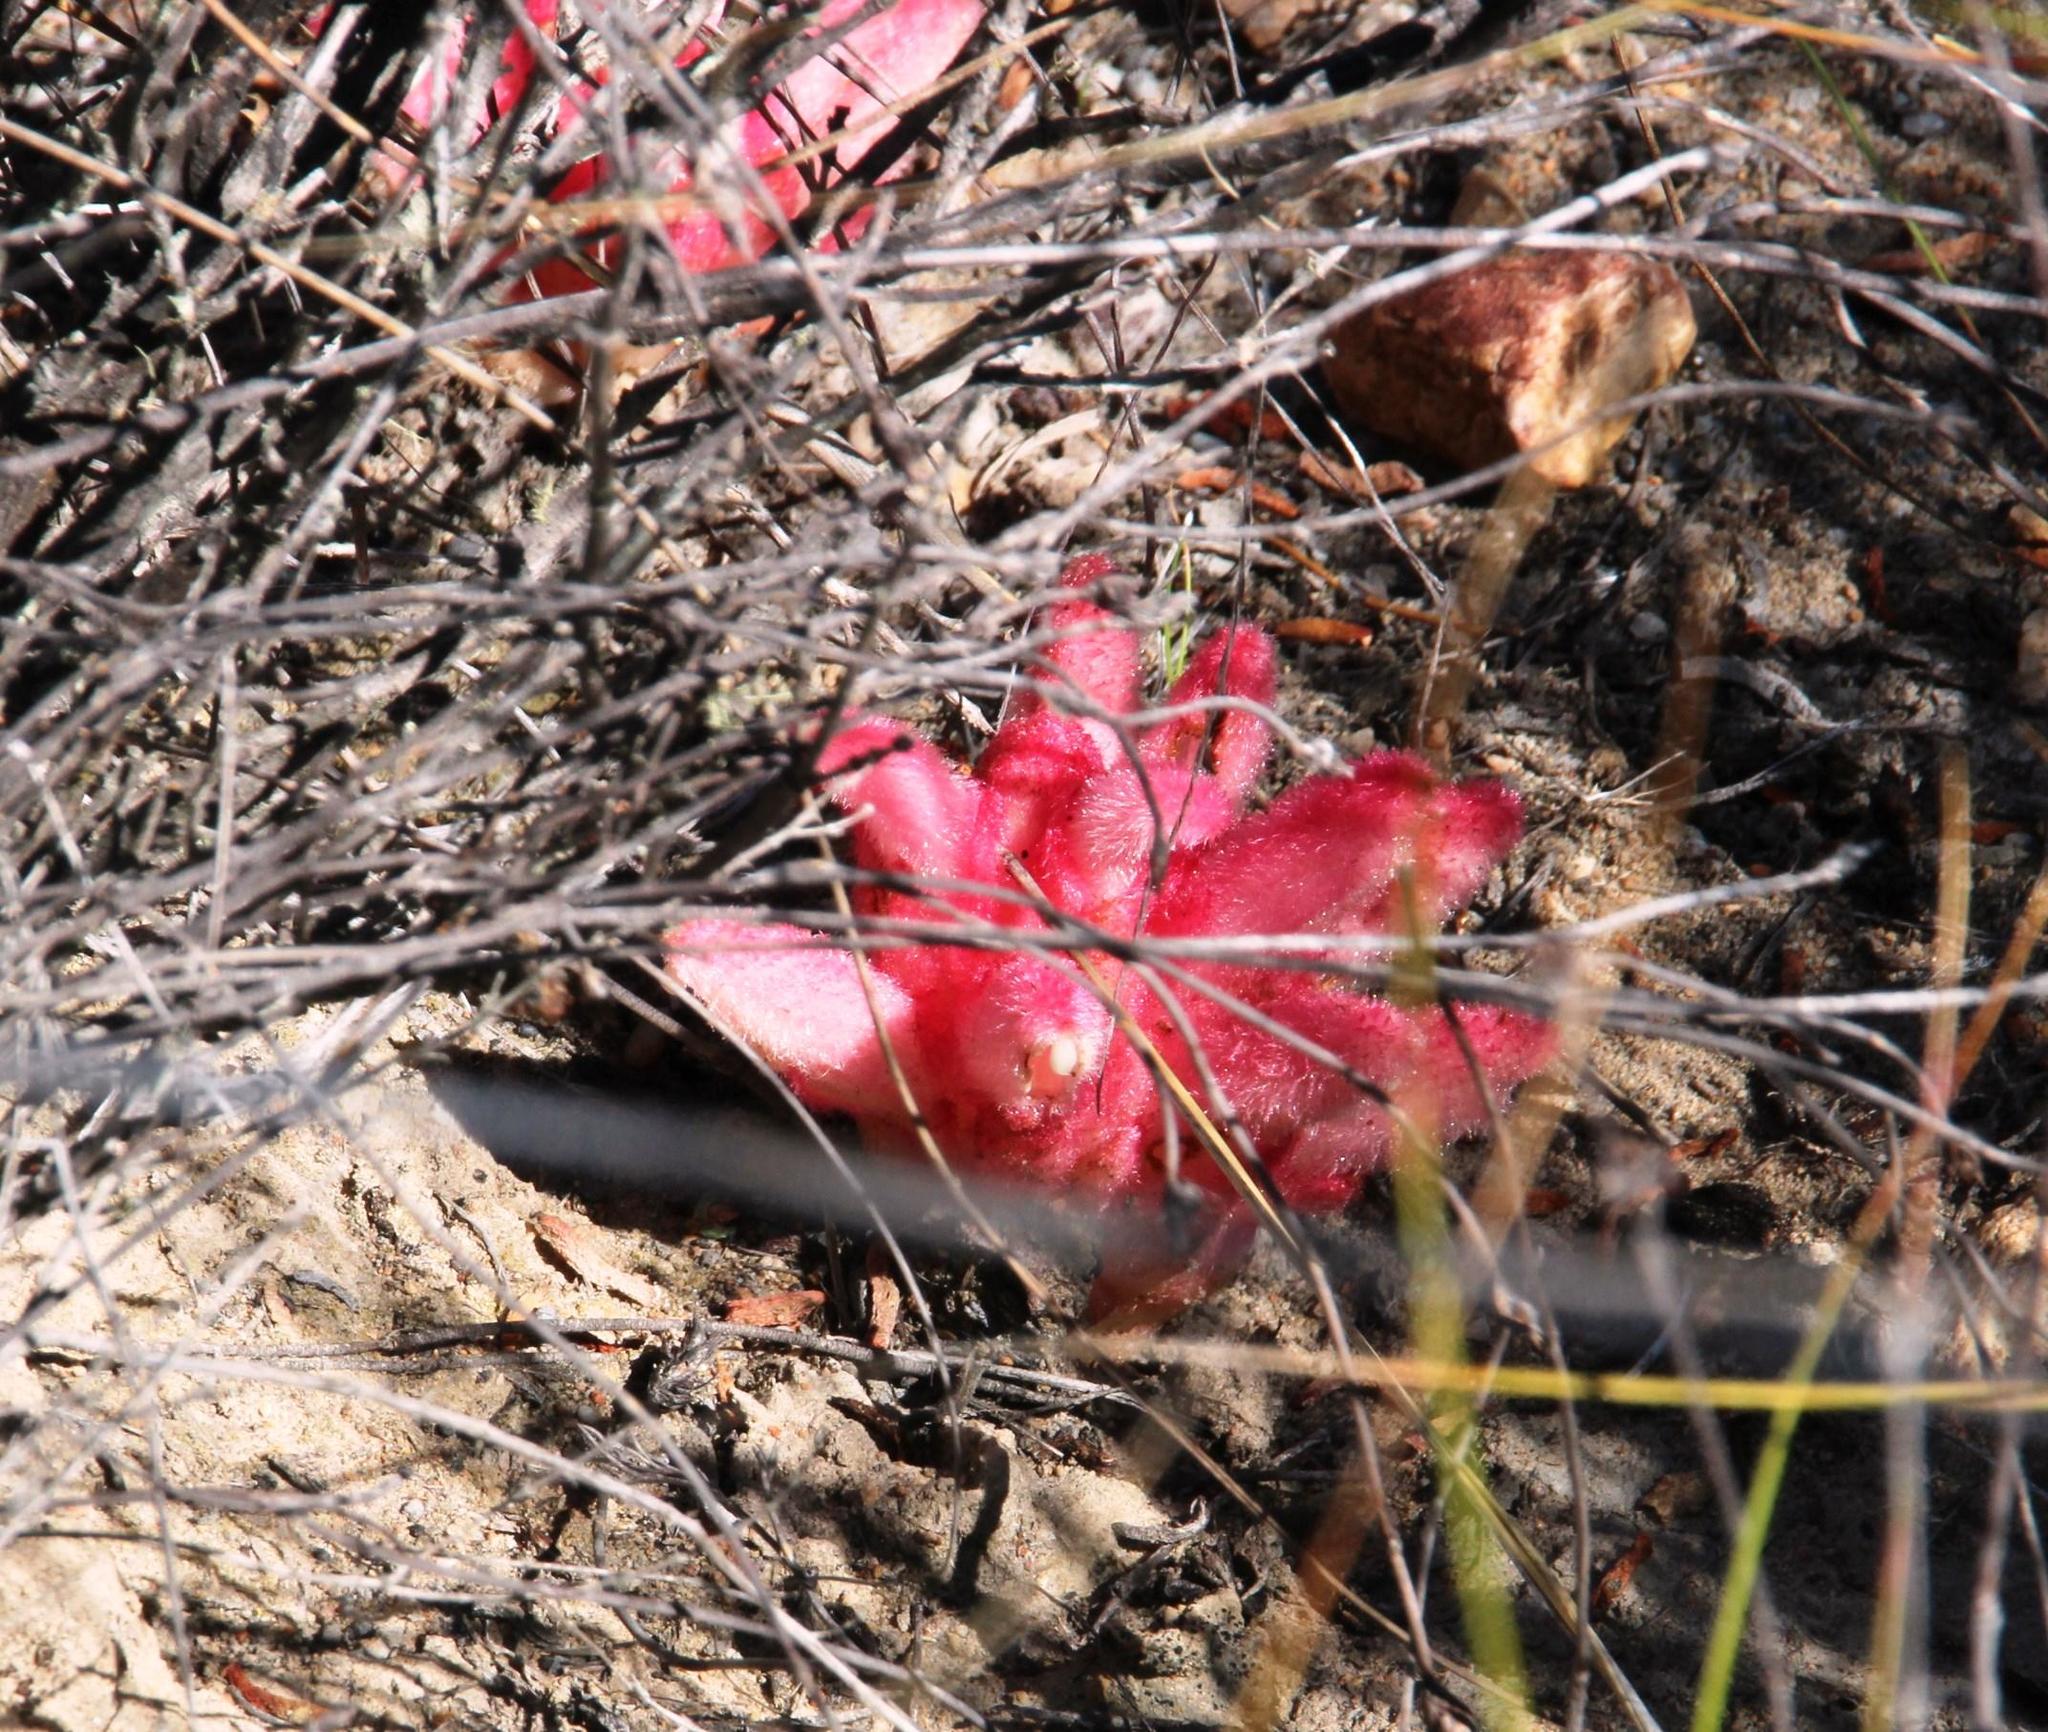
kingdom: Plantae
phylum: Tracheophyta
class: Magnoliopsida
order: Lamiales
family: Orobanchaceae
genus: Hyobanche
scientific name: Hyobanche sanguinea
